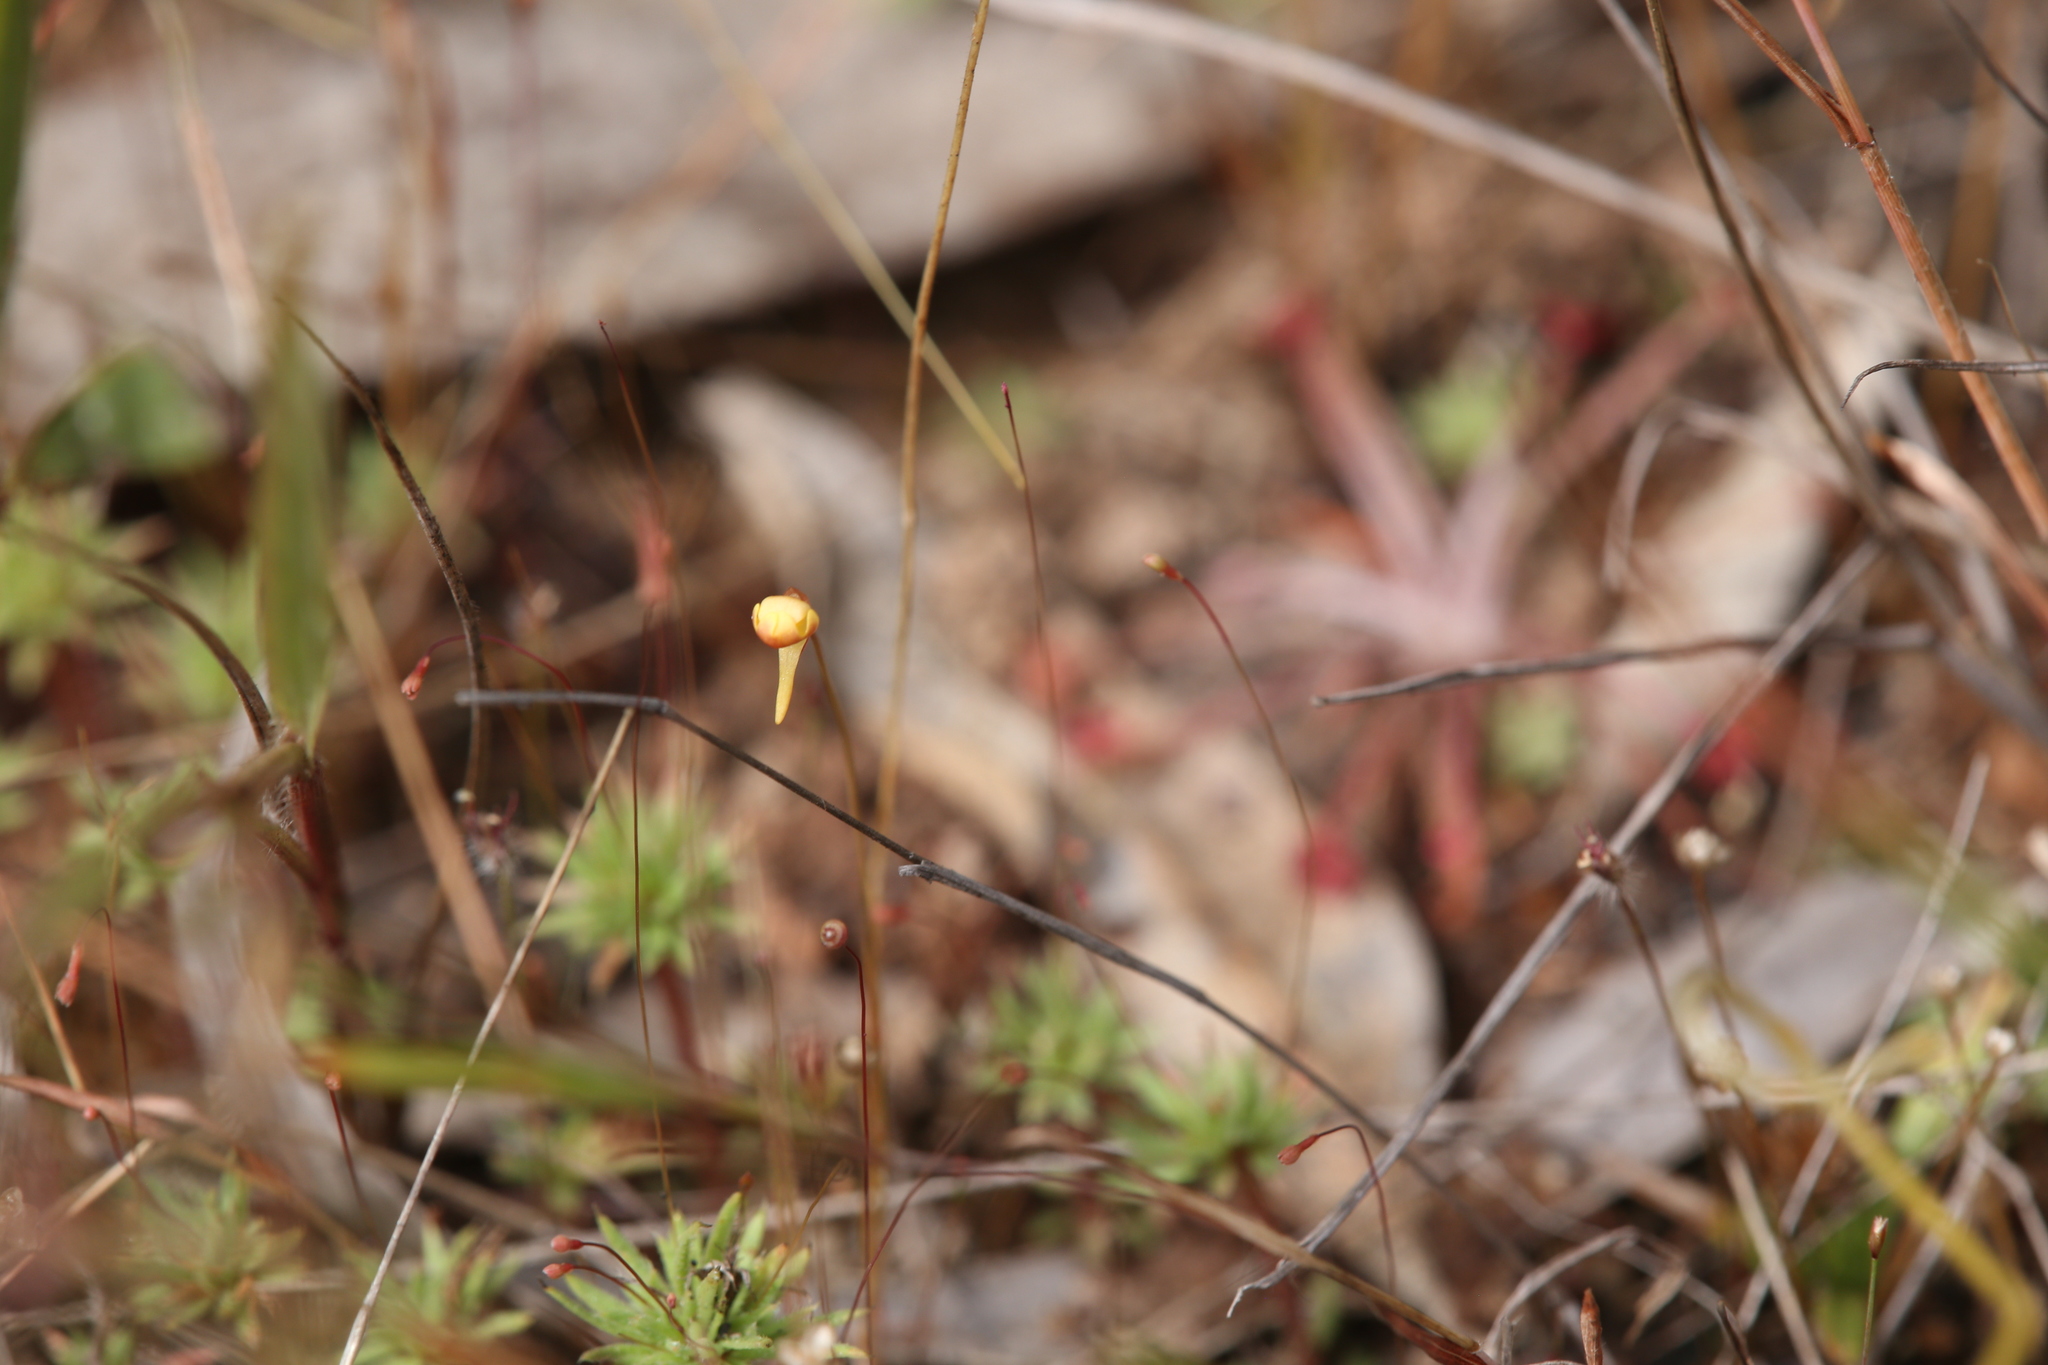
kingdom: Plantae
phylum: Tracheophyta
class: Magnoliopsida
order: Lamiales
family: Lentibulariaceae
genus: Utricularia
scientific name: Utricularia chrysantha
